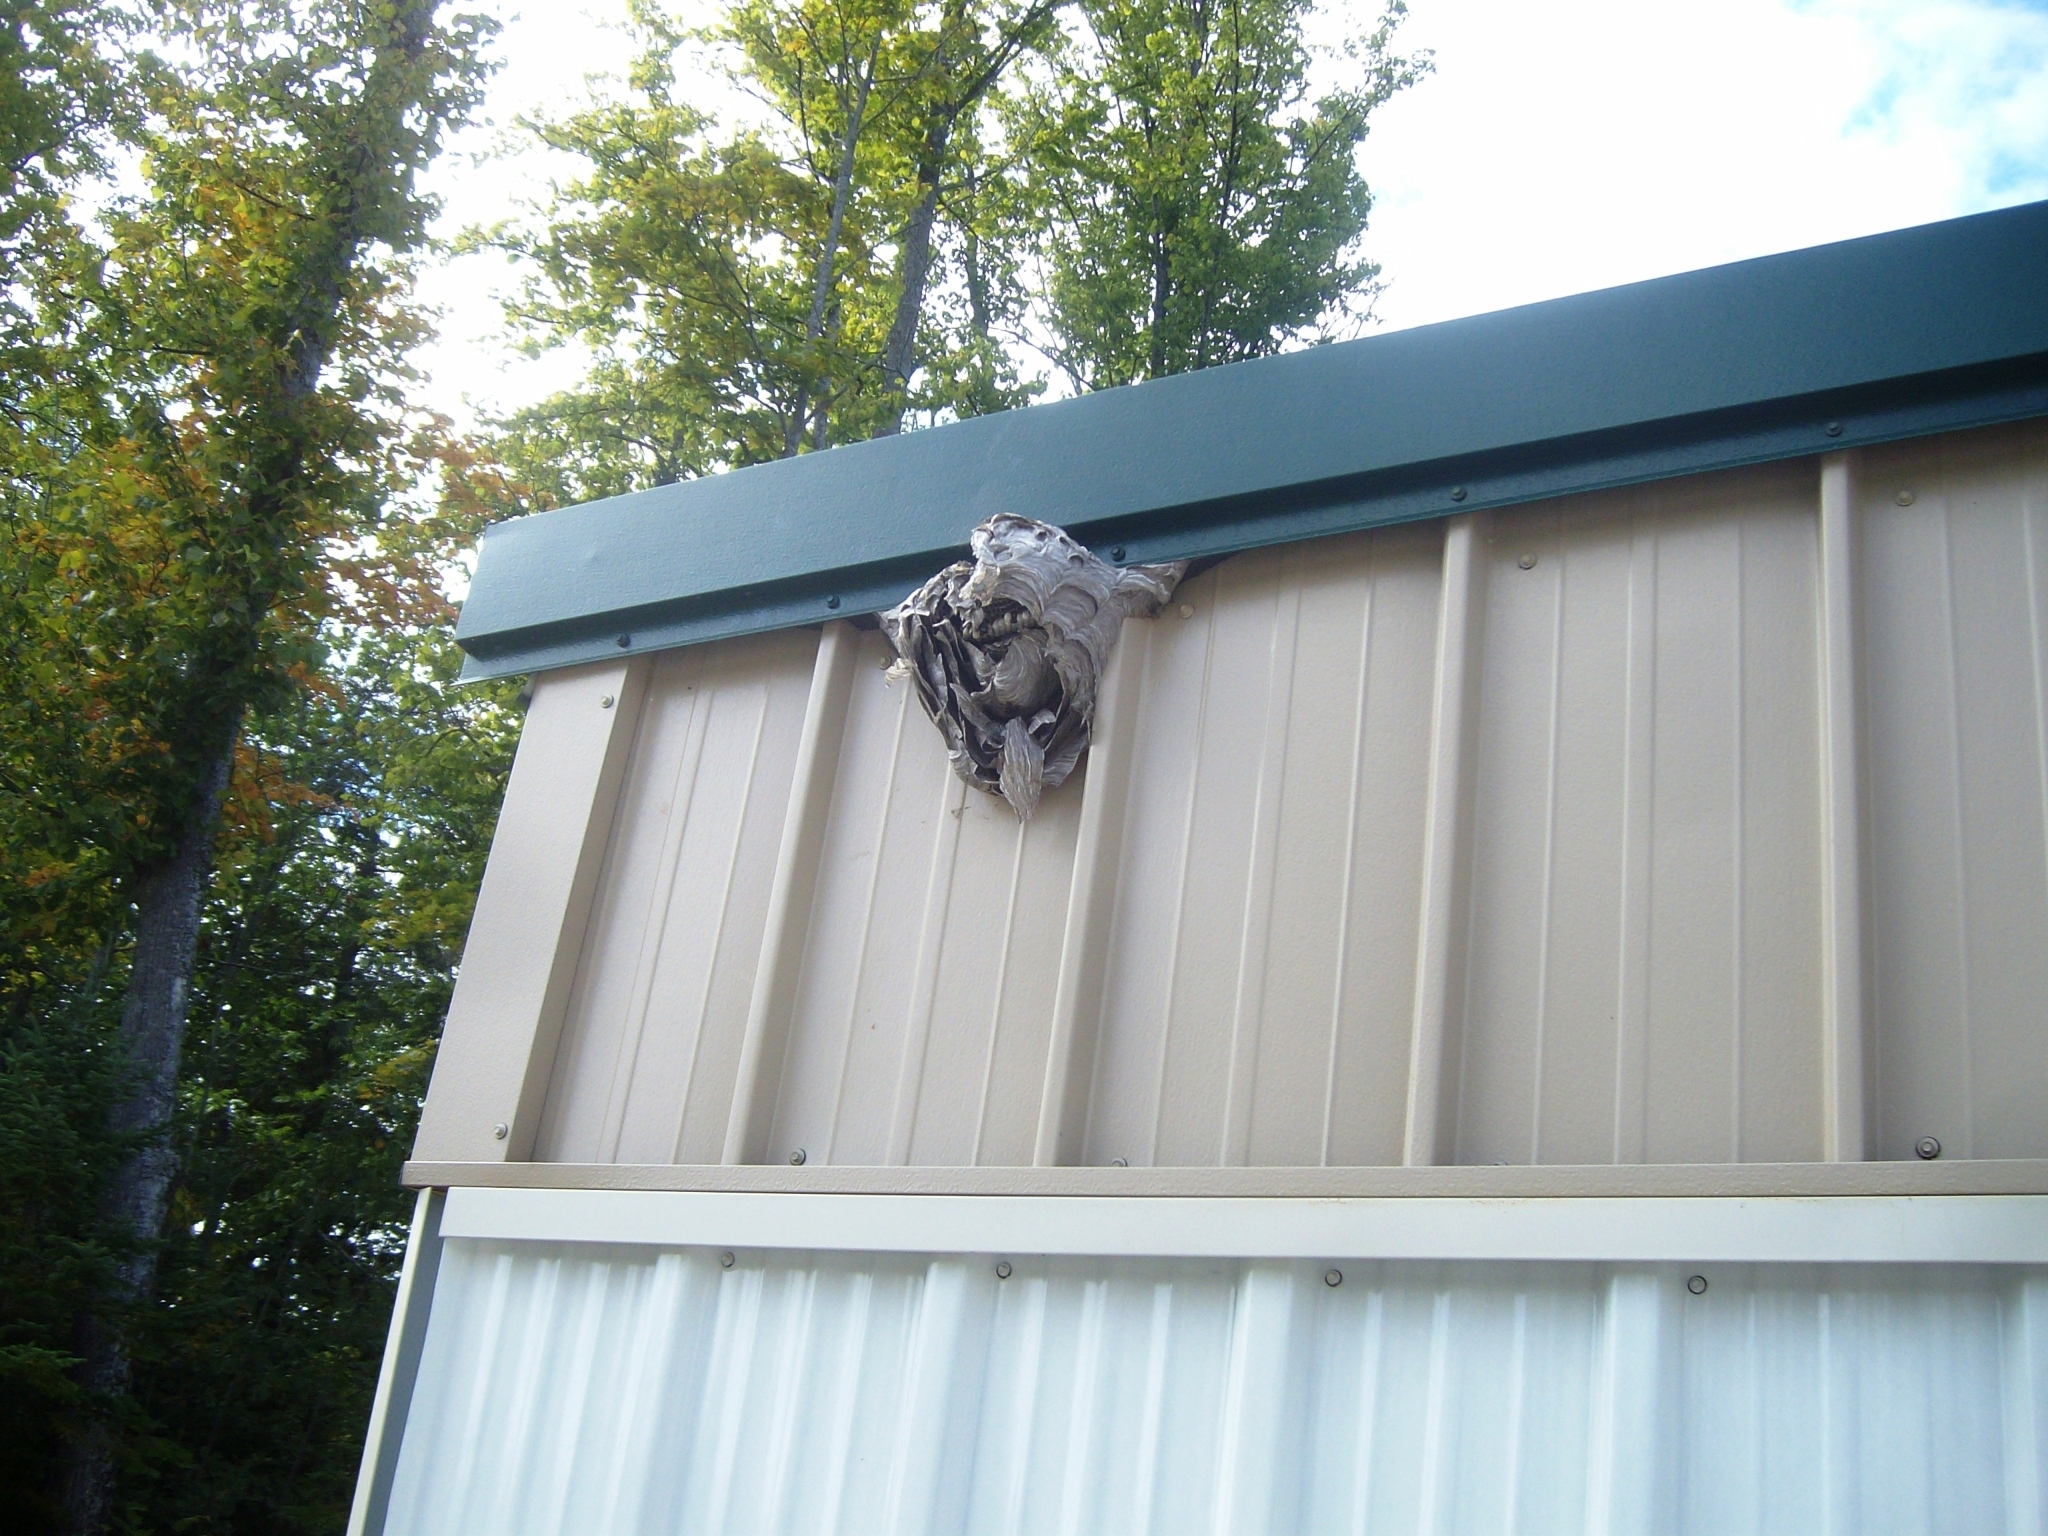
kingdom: Animalia
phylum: Arthropoda
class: Insecta
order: Hymenoptera
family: Vespidae
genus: Dolichovespula
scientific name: Dolichovespula
